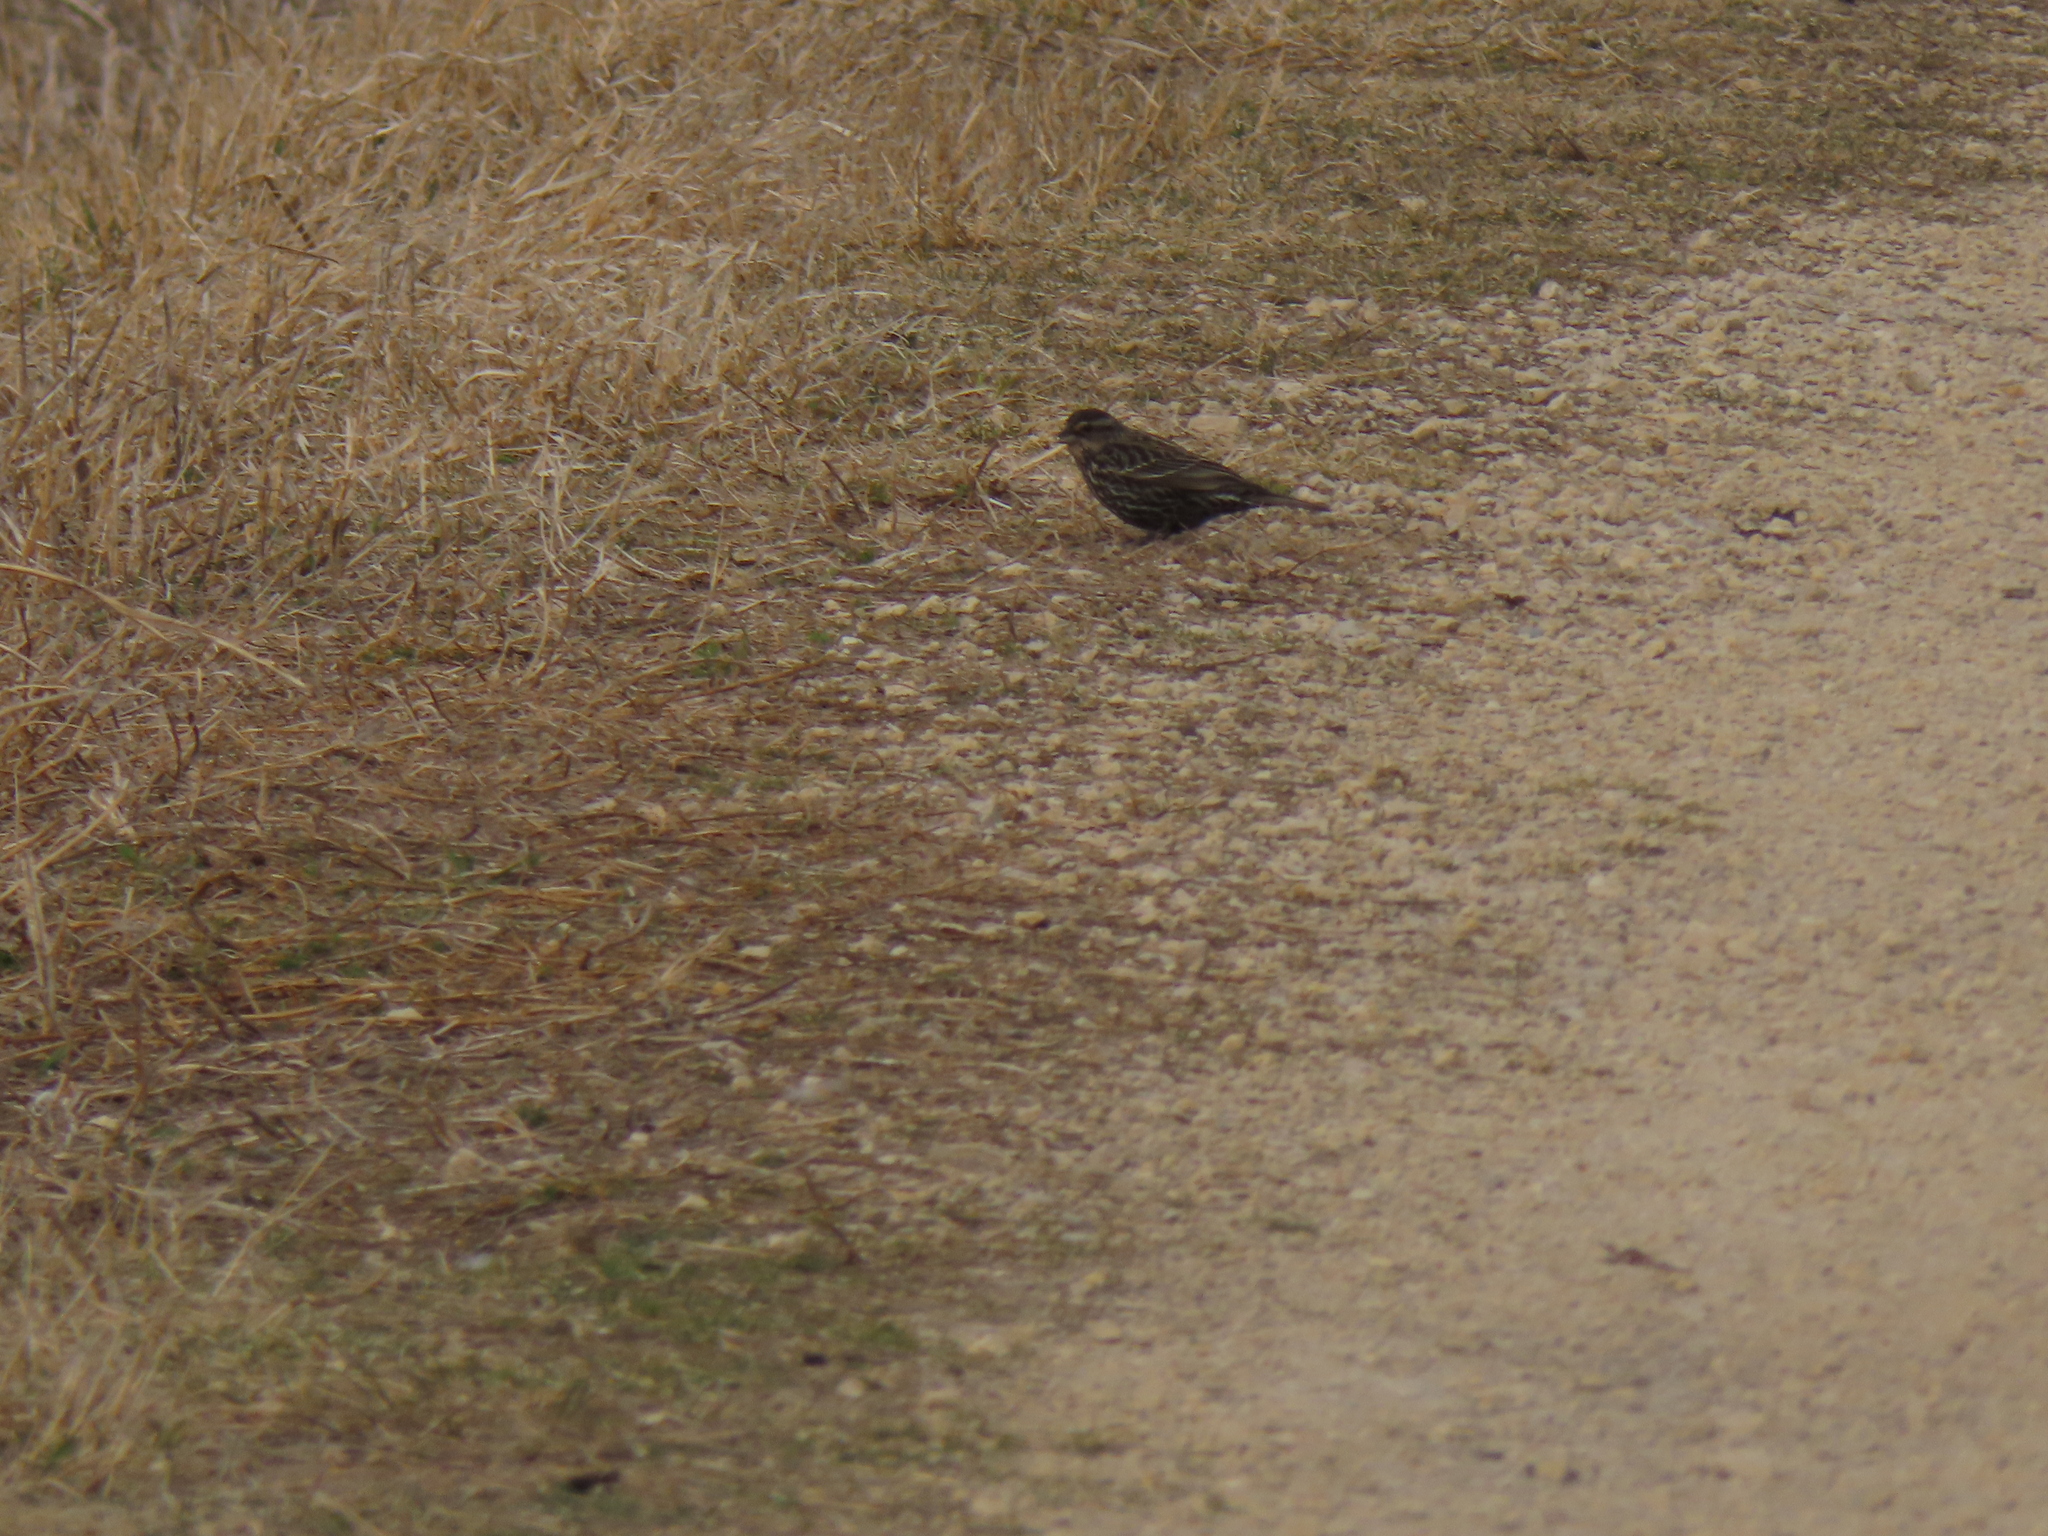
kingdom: Animalia
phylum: Chordata
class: Aves
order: Passeriformes
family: Icteridae
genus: Agelaius
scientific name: Agelaius phoeniceus
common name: Red-winged blackbird
